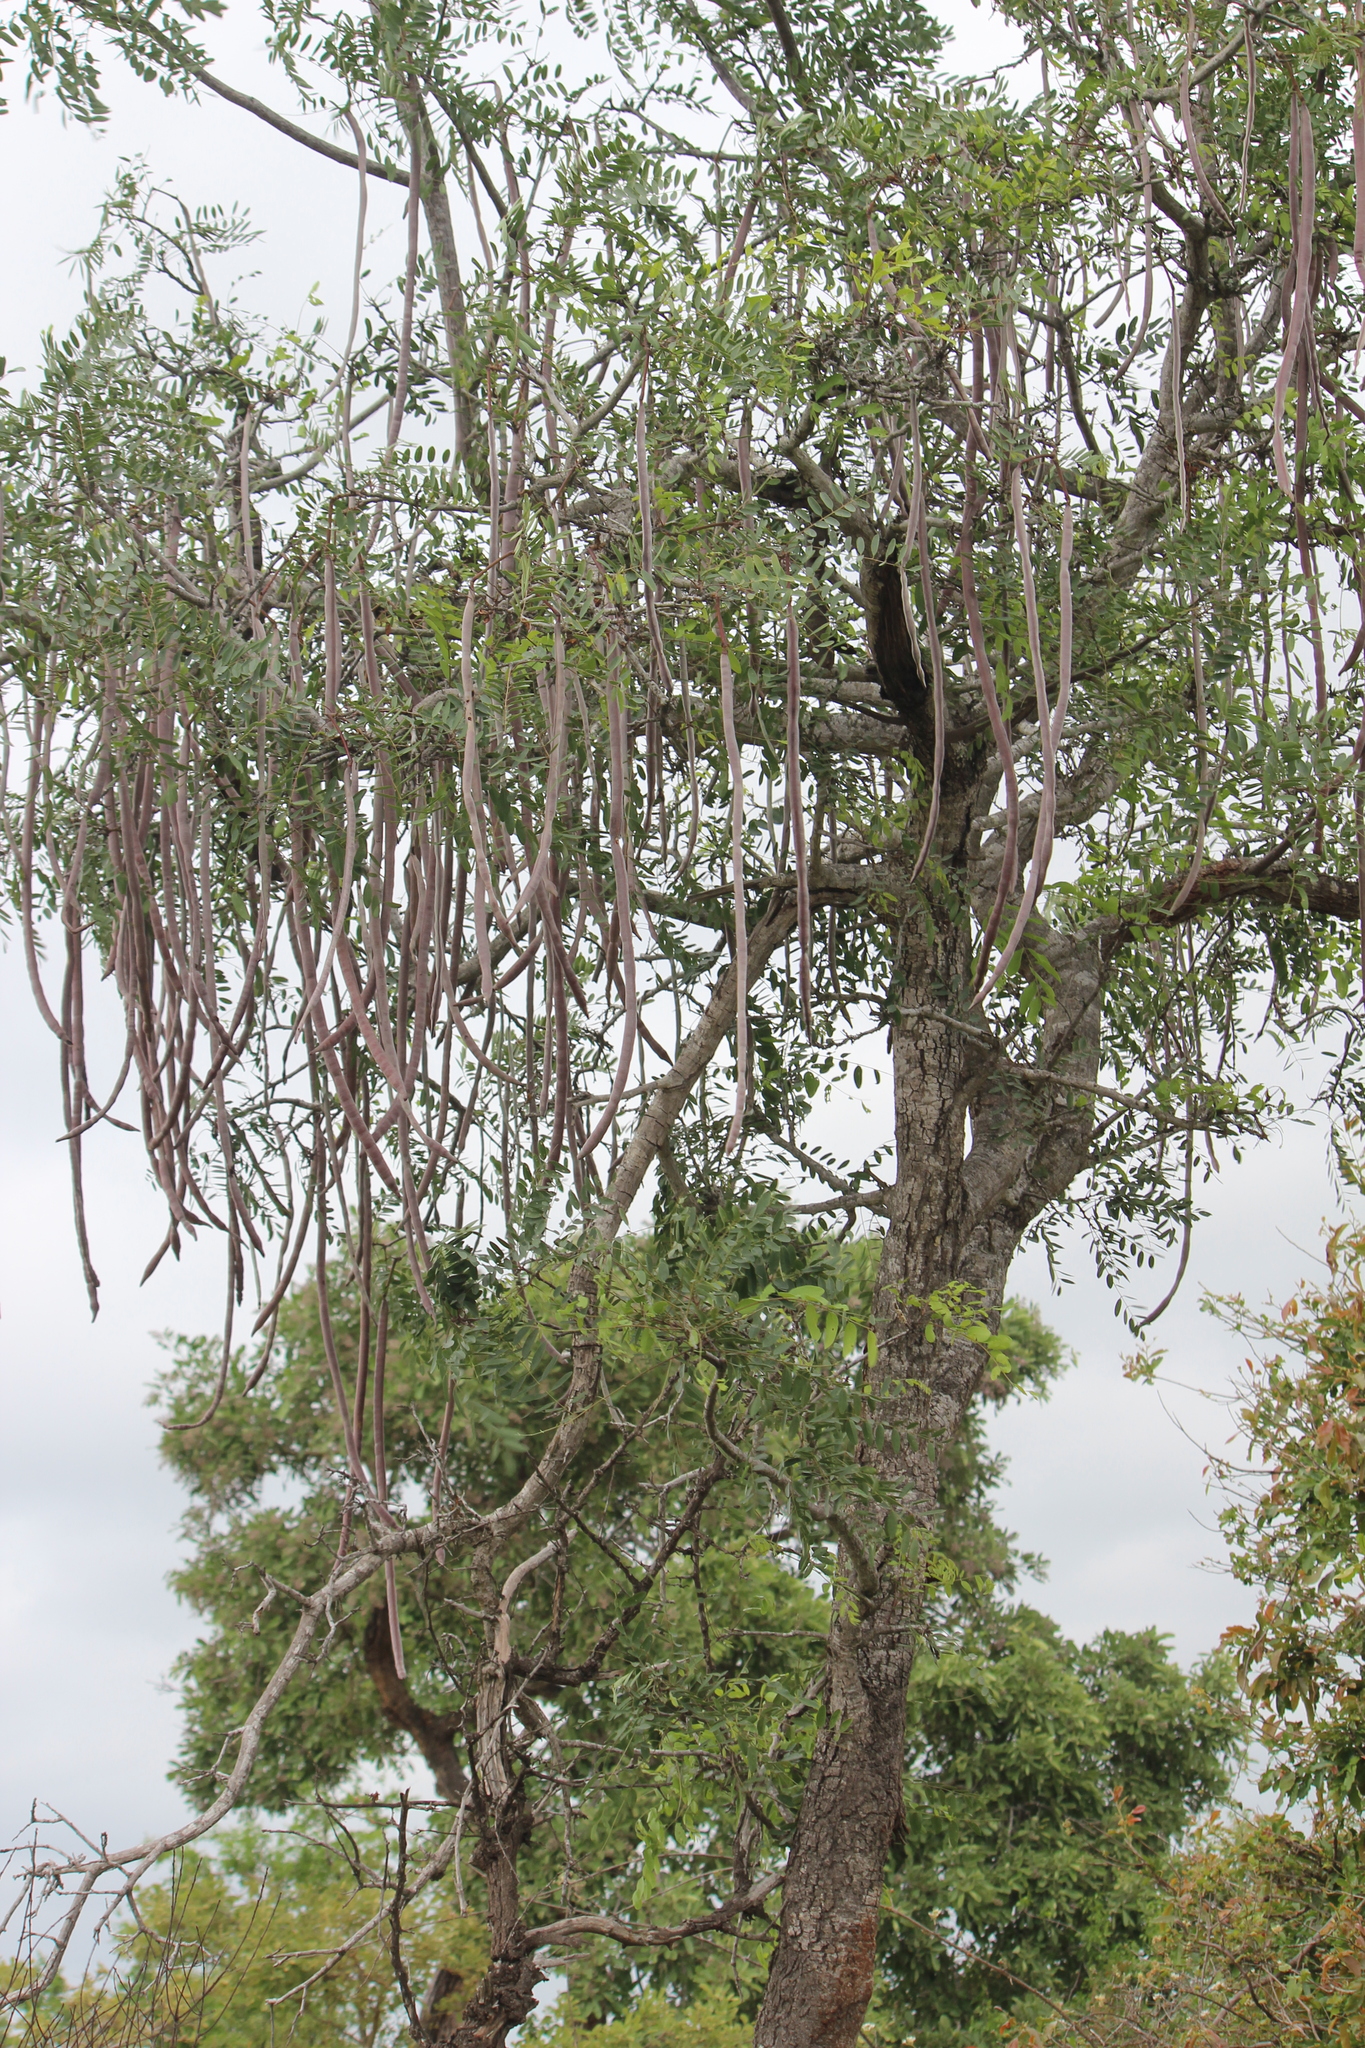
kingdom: Plantae
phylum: Tracheophyta
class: Magnoliopsida
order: Fabales
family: Fabaceae
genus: Cassia
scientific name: Cassia abbreviata
